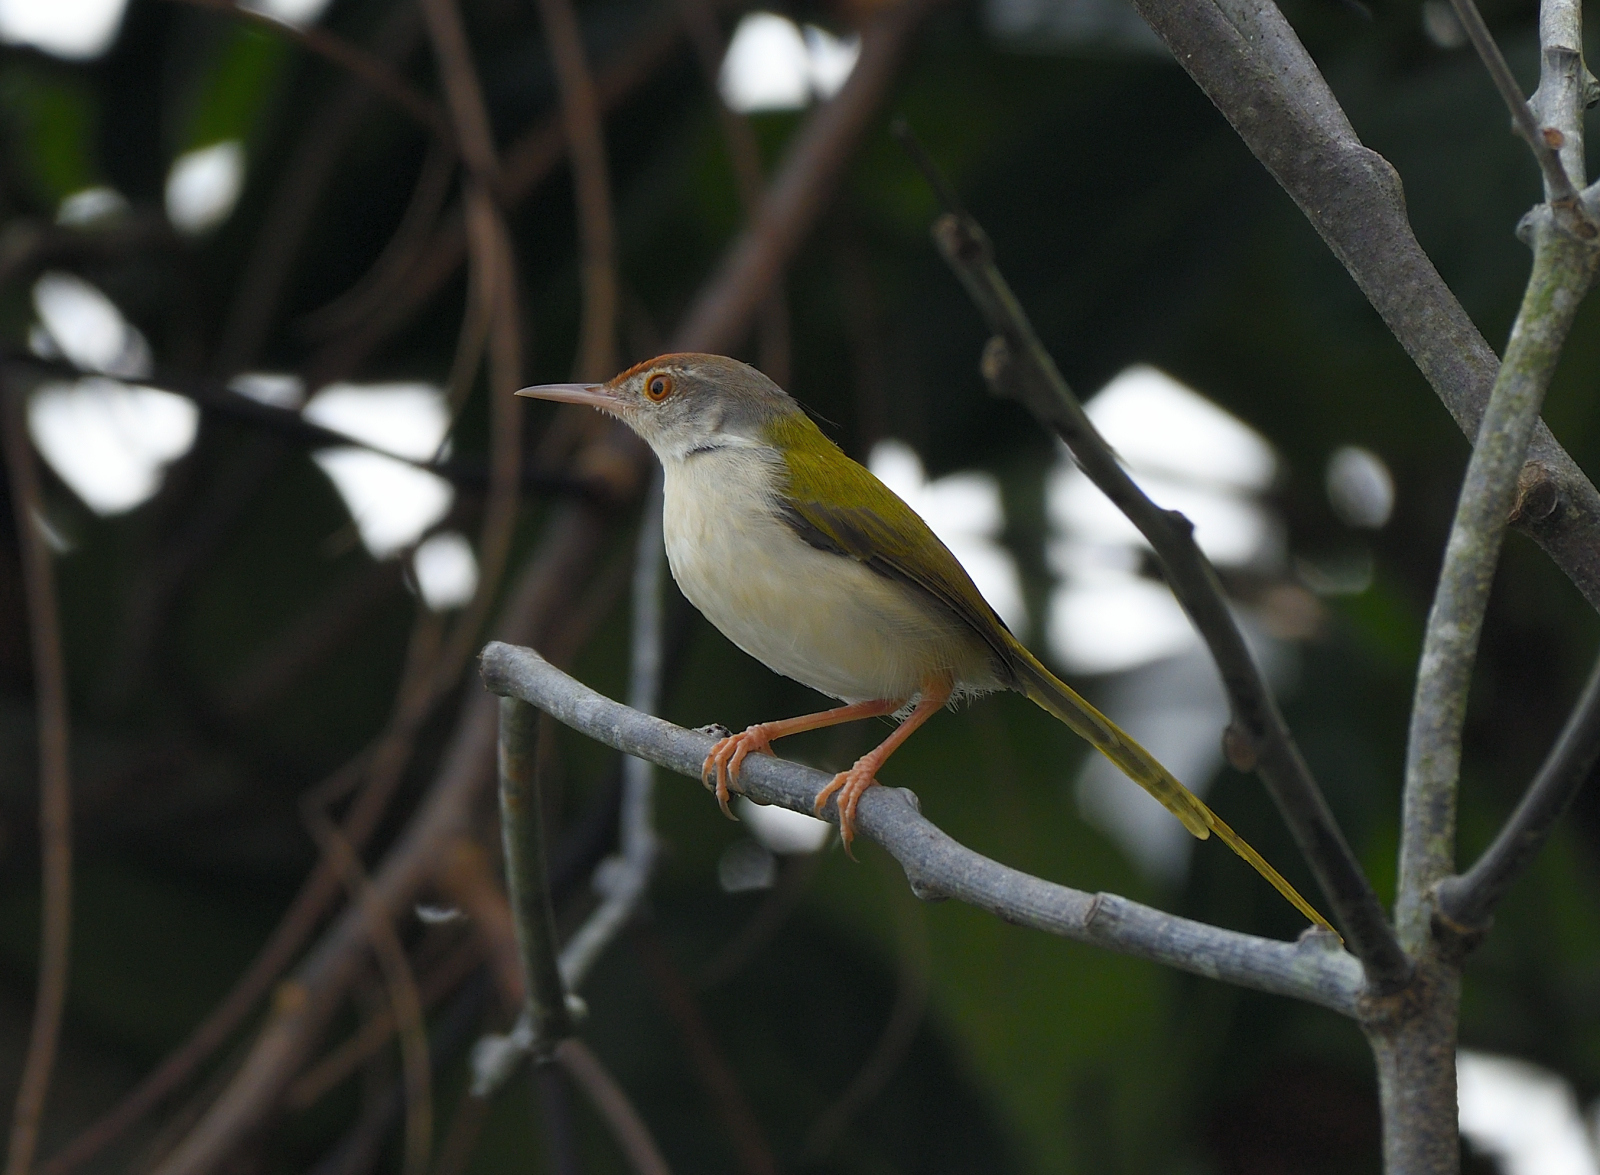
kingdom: Animalia
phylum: Chordata
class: Aves
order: Passeriformes
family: Cisticolidae
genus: Orthotomus
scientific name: Orthotomus sutorius
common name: Common tailorbird
